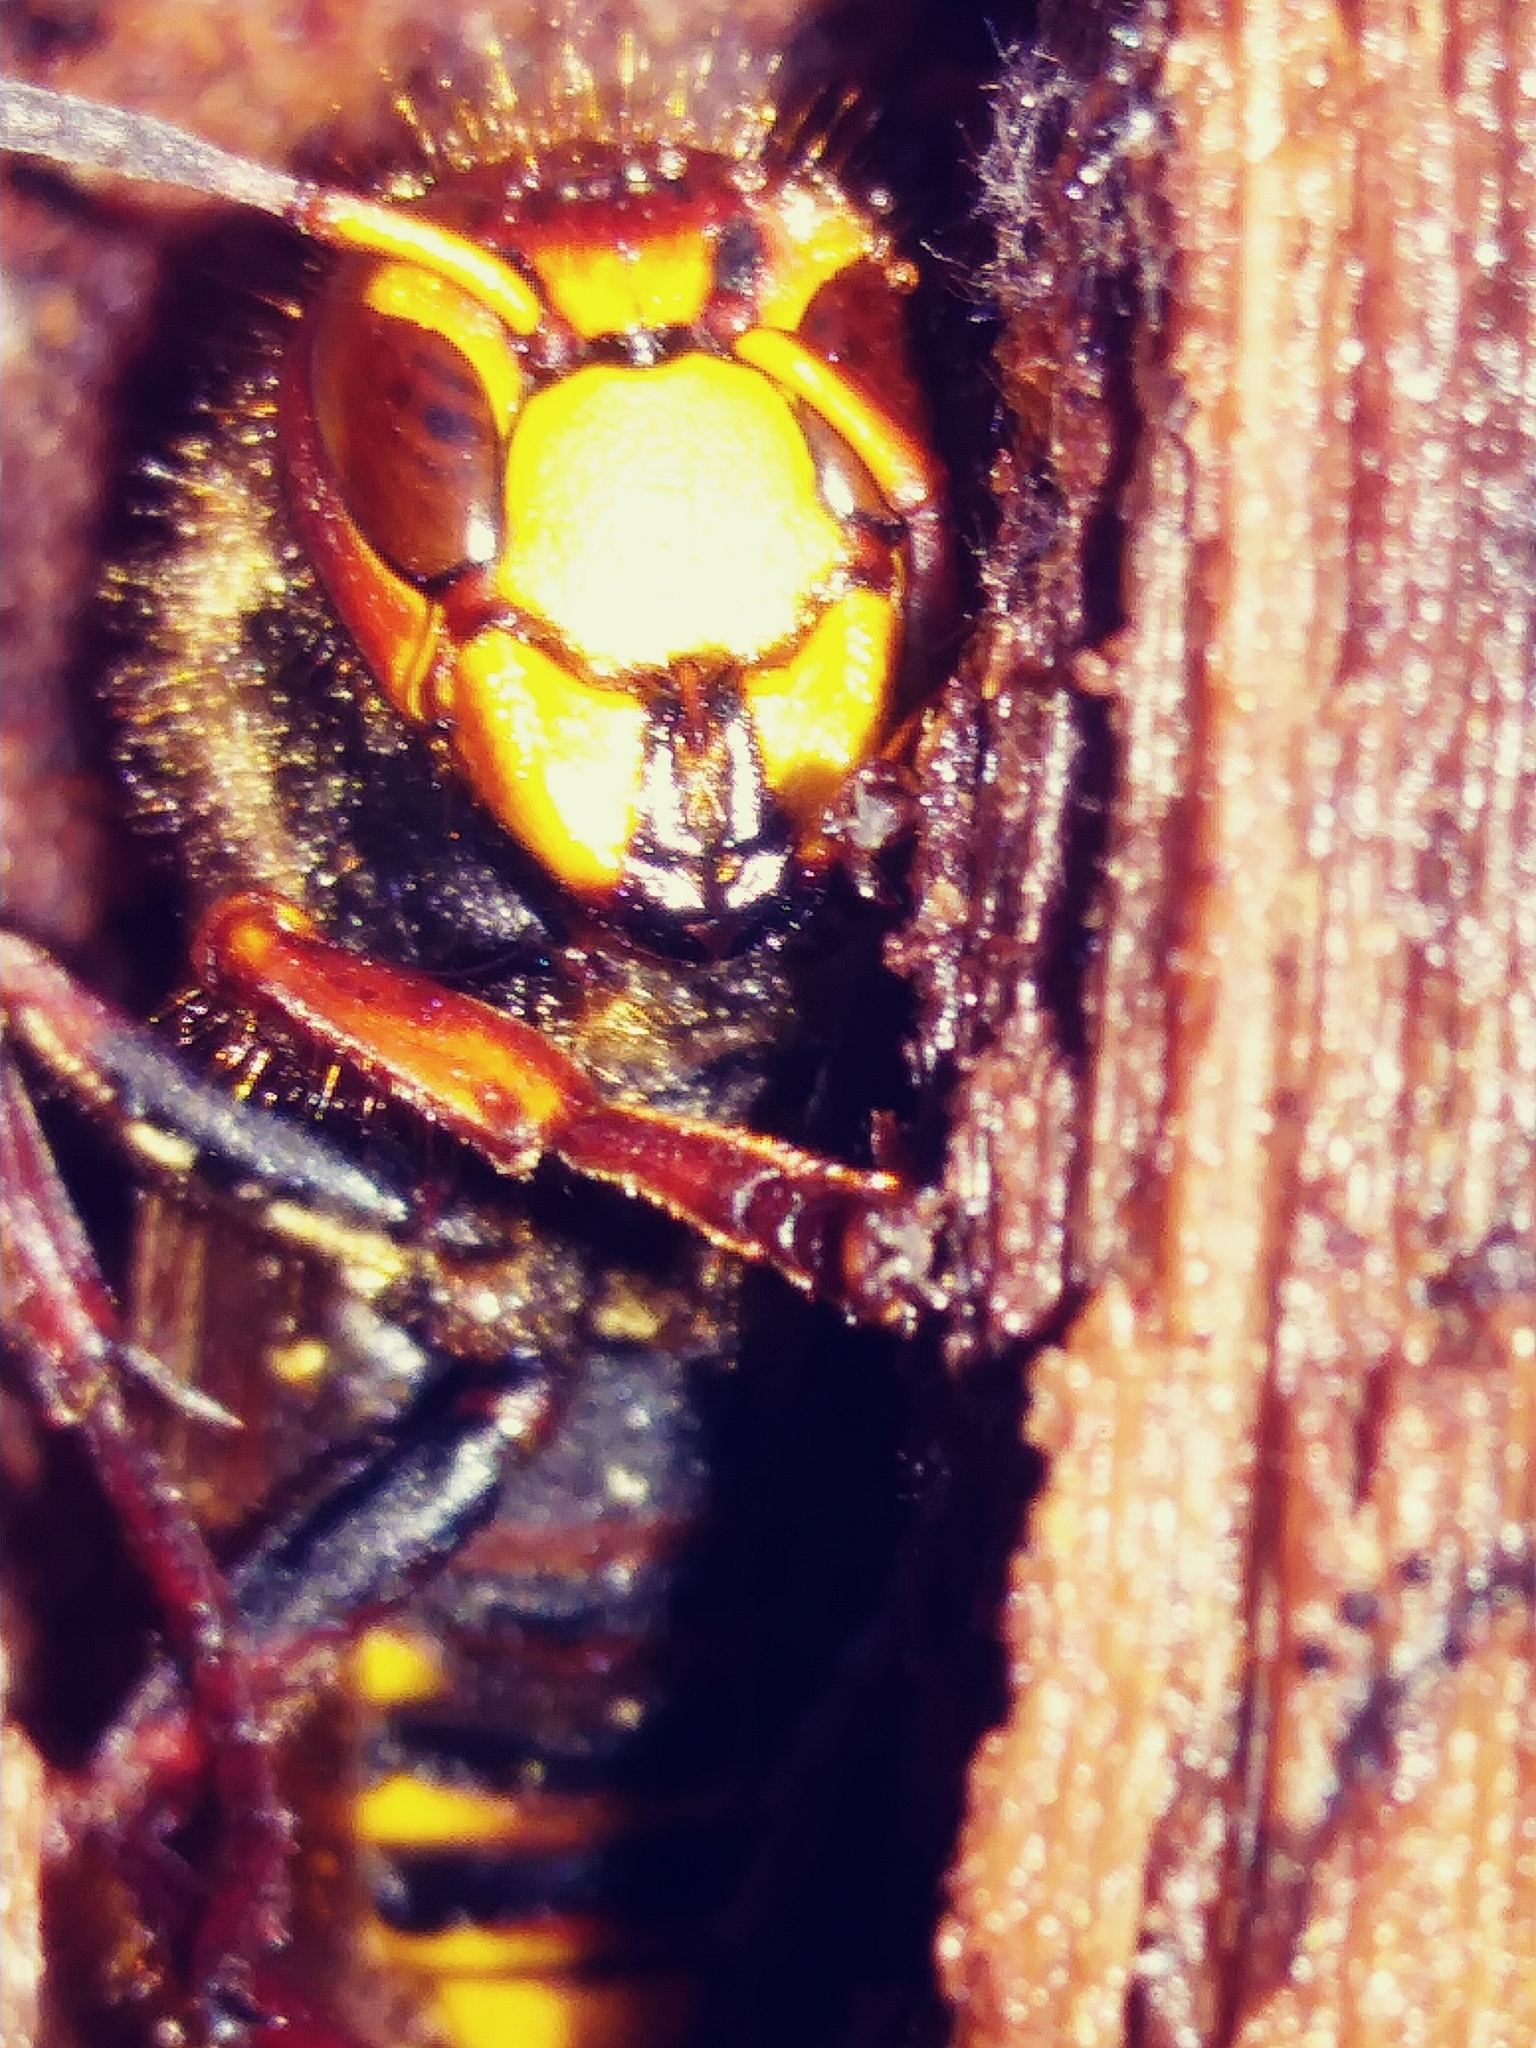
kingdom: Animalia
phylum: Arthropoda
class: Insecta
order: Hymenoptera
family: Vespidae
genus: Vespa
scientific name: Vespa crabro
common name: Hornet
